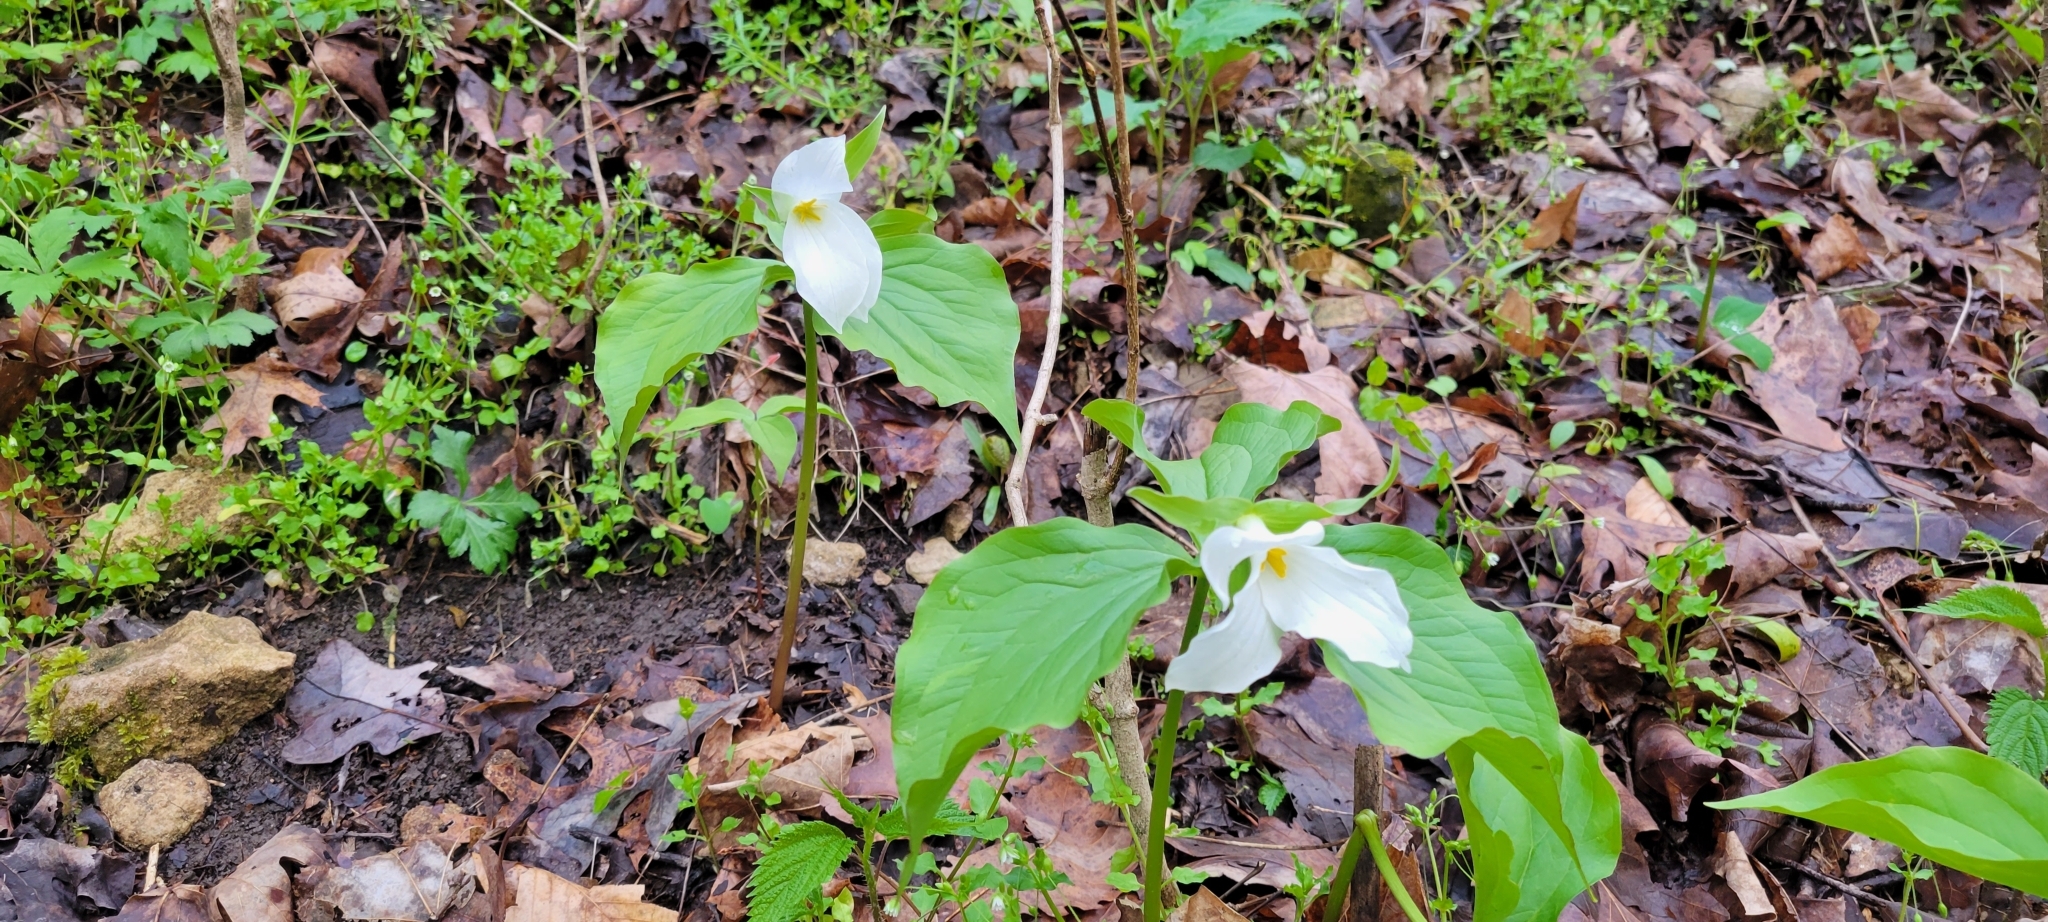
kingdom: Plantae
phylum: Tracheophyta
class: Liliopsida
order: Liliales
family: Melanthiaceae
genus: Trillium
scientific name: Trillium grandiflorum
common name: Great white trillium
